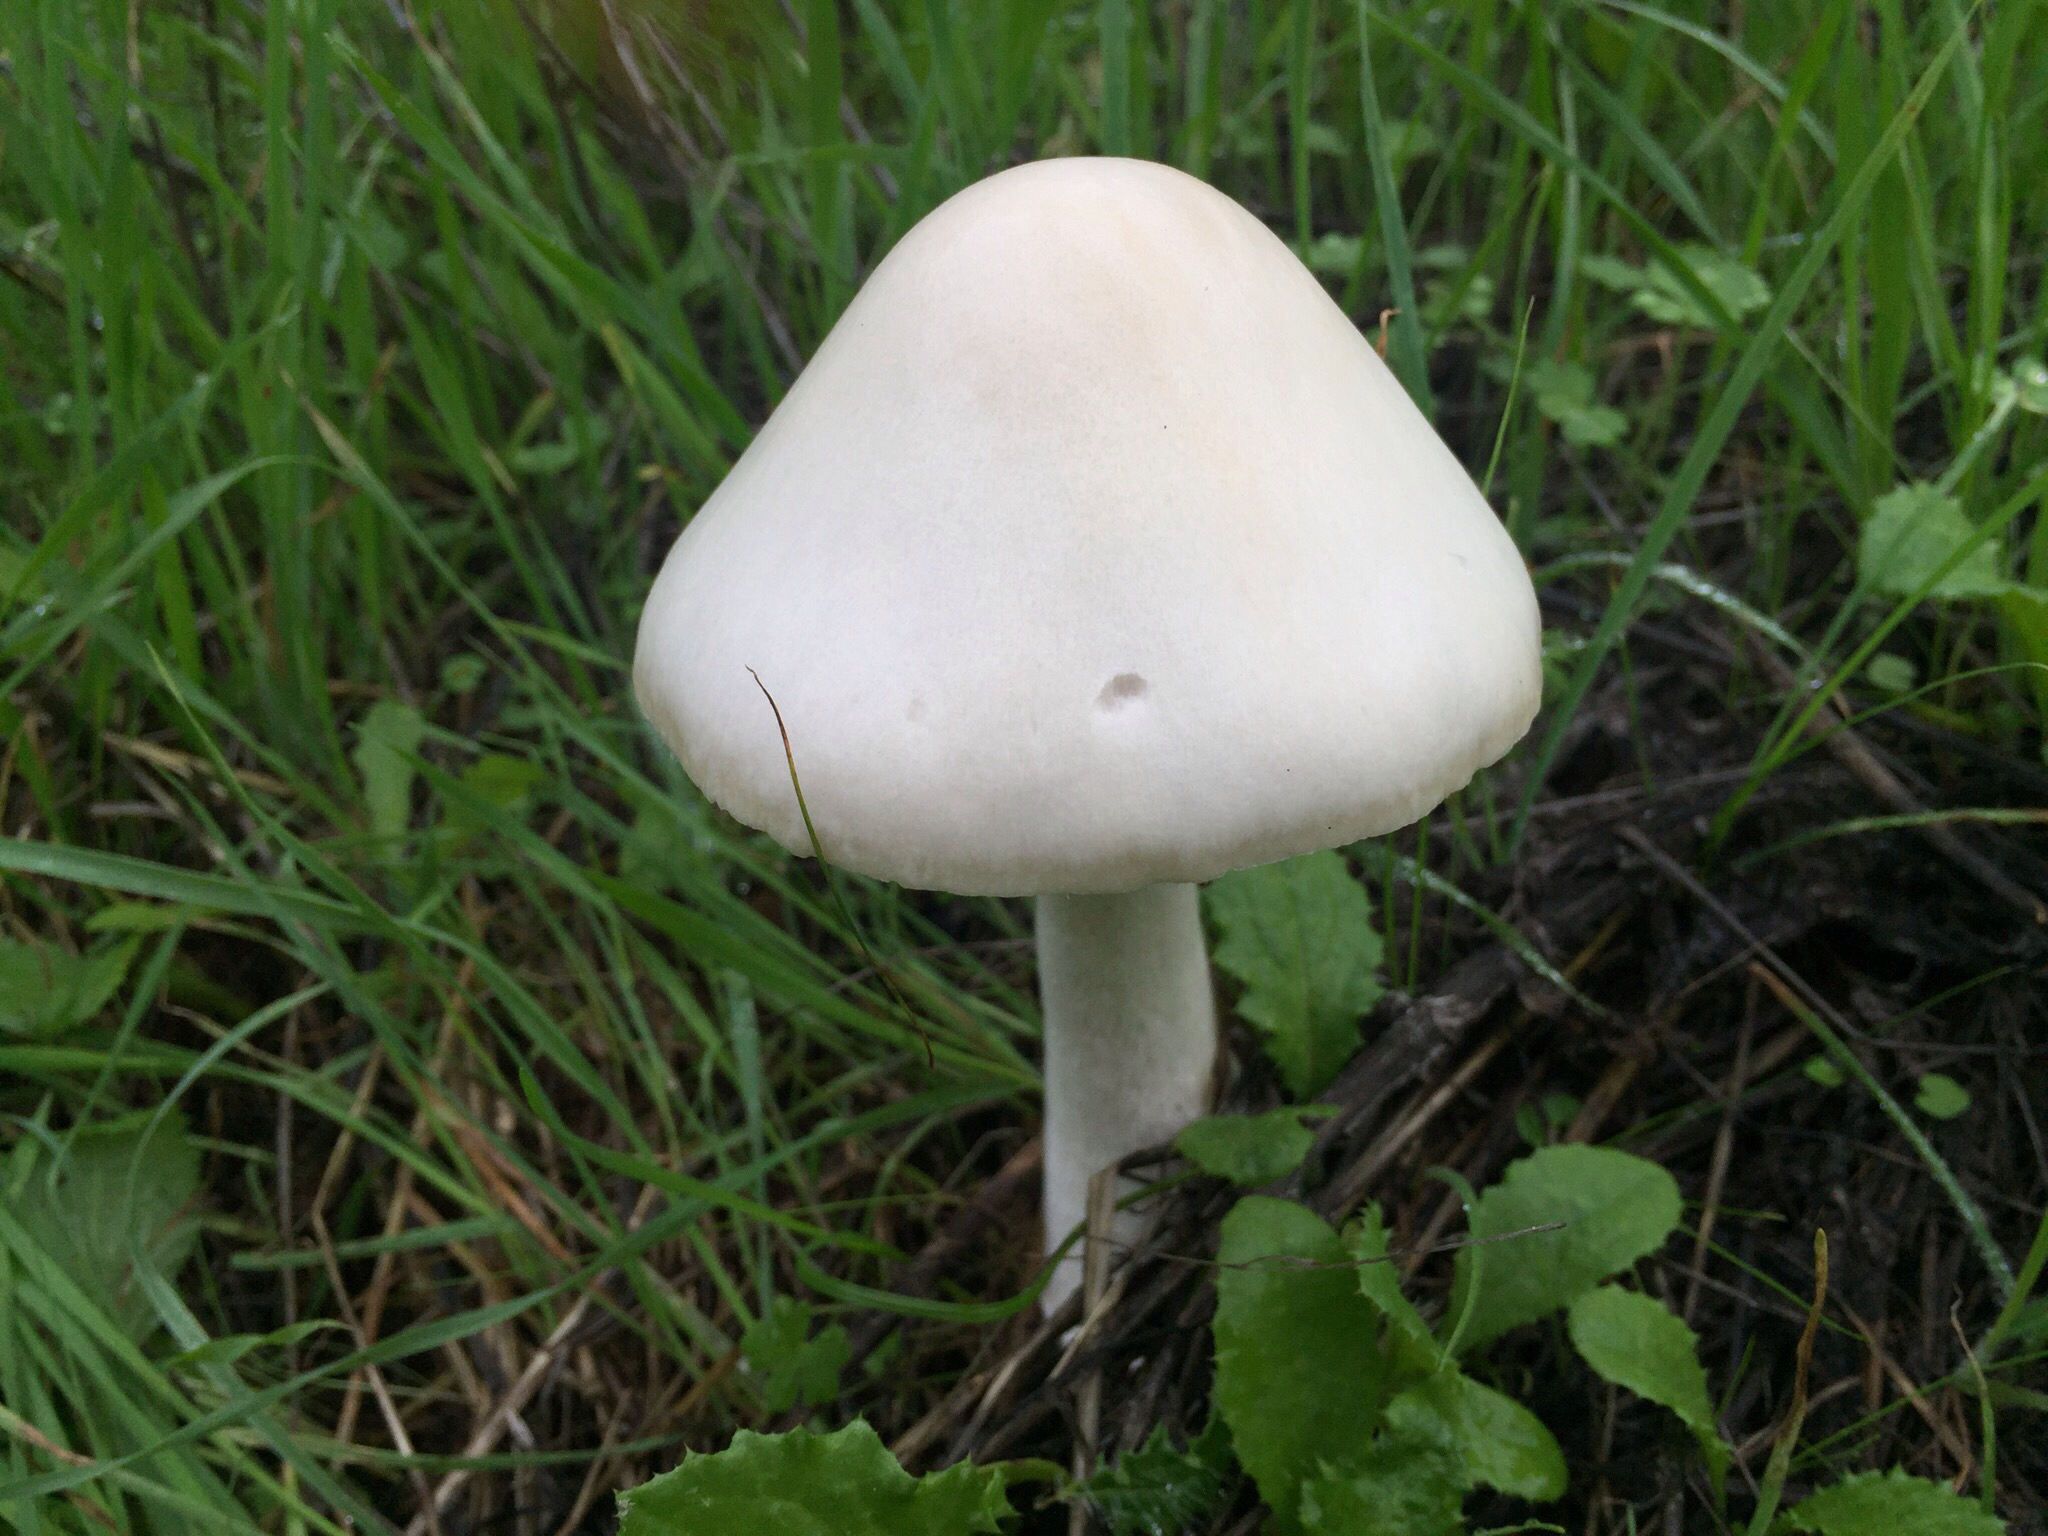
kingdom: Fungi
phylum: Basidiomycota
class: Agaricomycetes
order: Agaricales
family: Pluteaceae
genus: Volvopluteus
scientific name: Volvopluteus gloiocephalus
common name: Stubble rosegill
